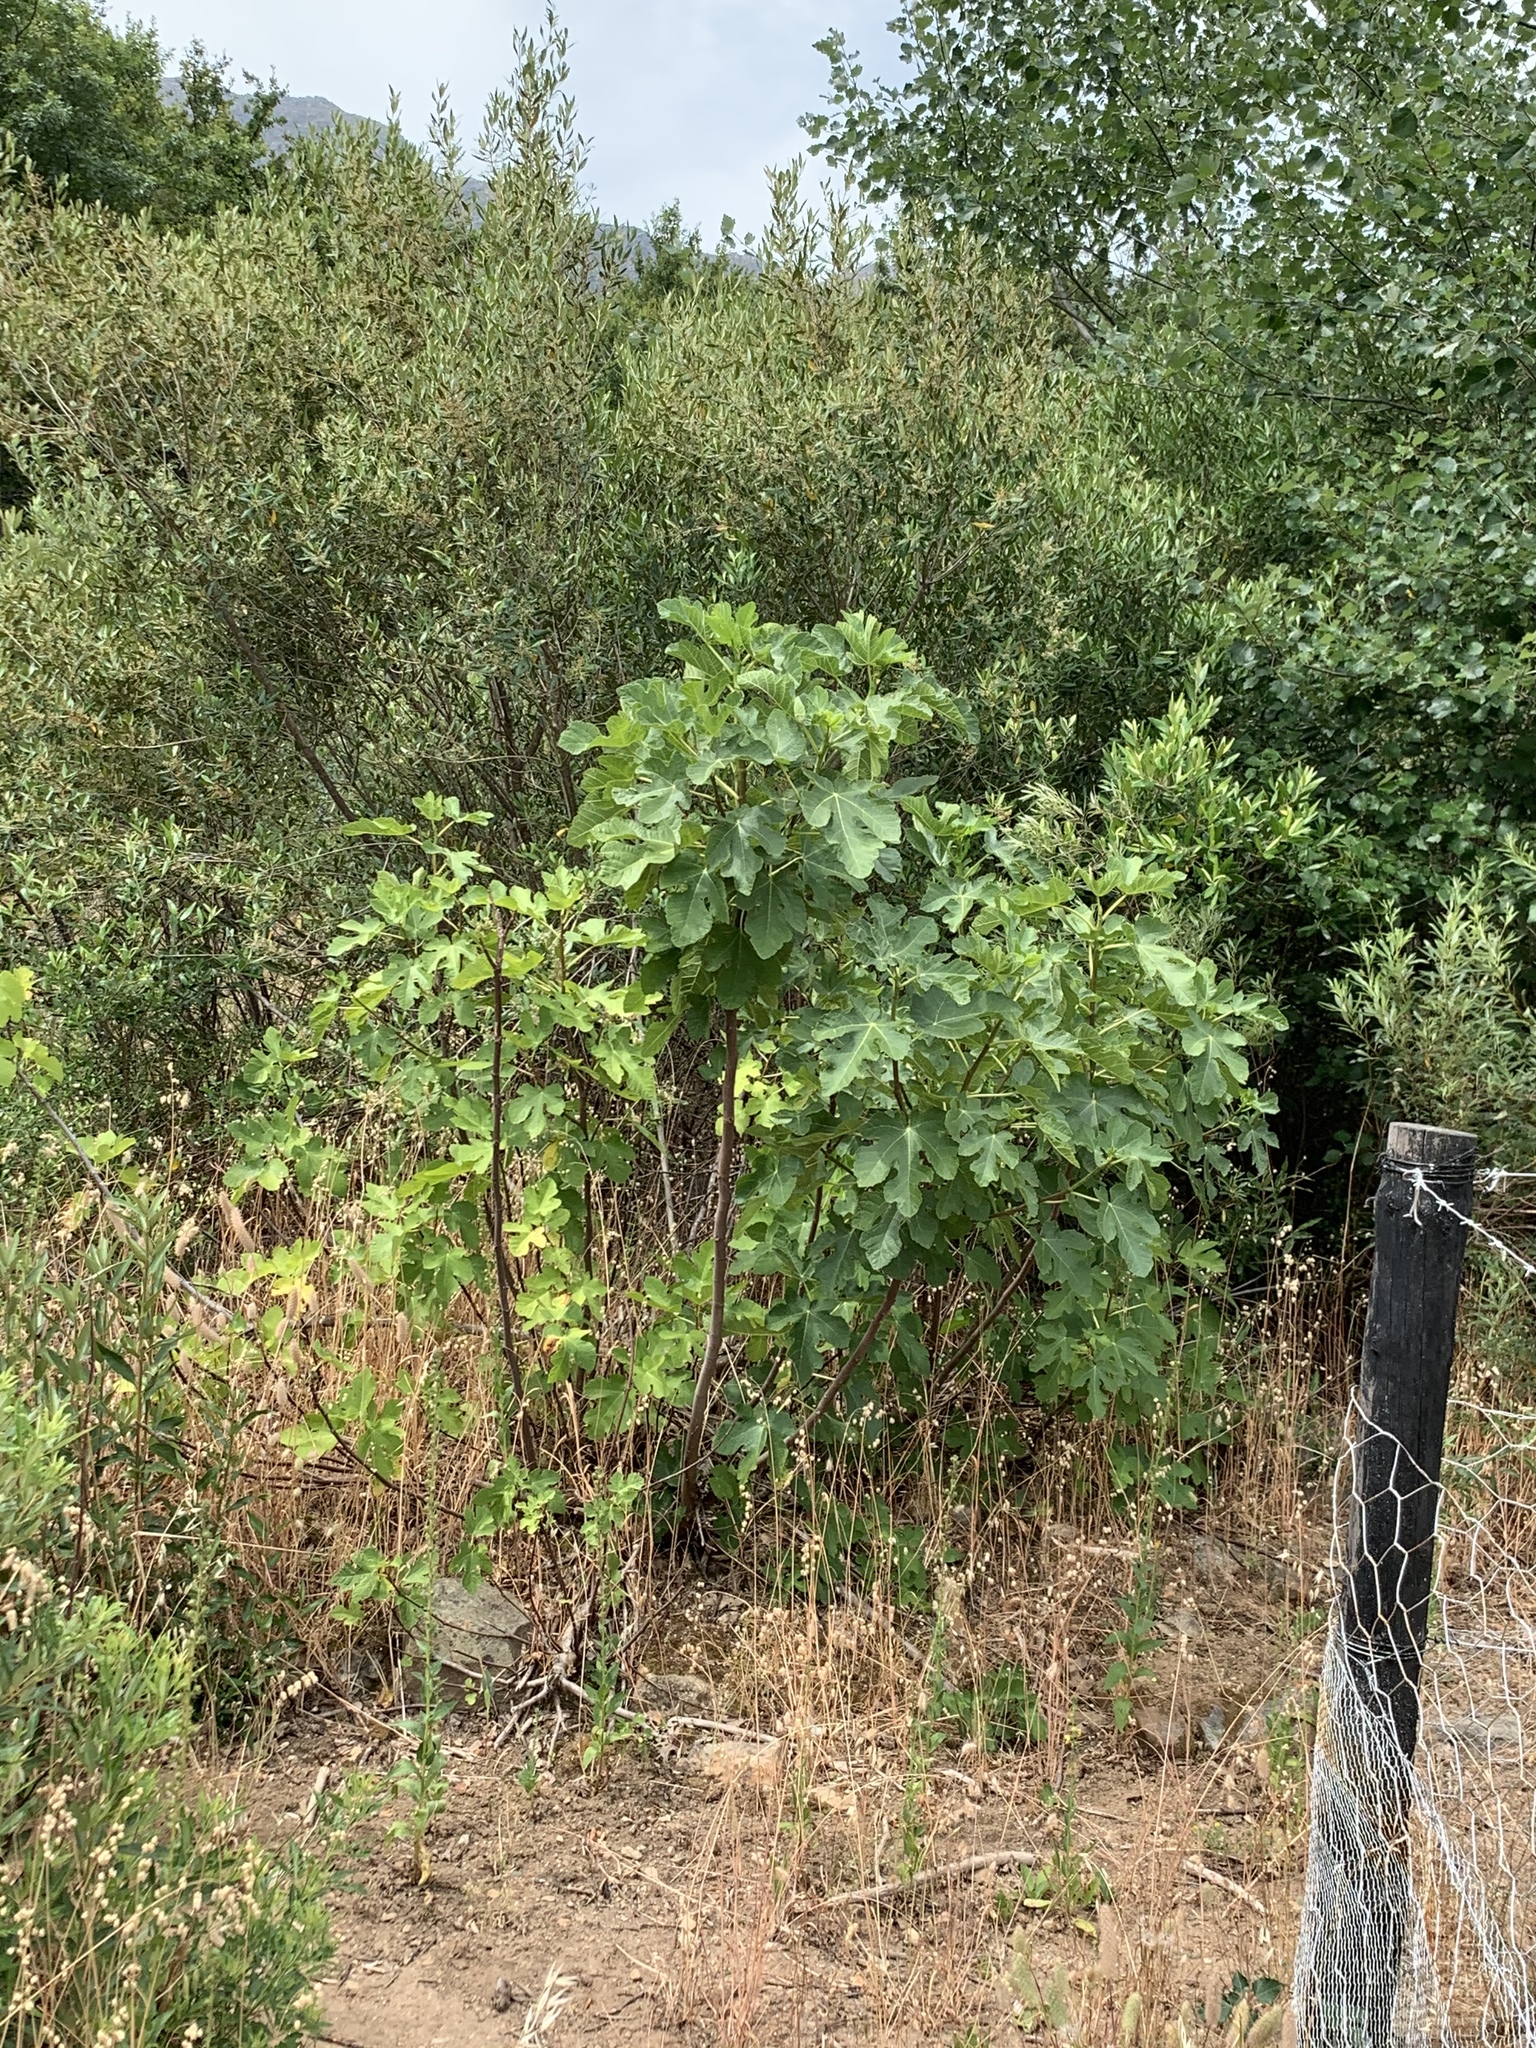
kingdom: Plantae
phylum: Tracheophyta
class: Magnoliopsida
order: Rosales
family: Moraceae
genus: Ficus
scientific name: Ficus carica
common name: Fig
